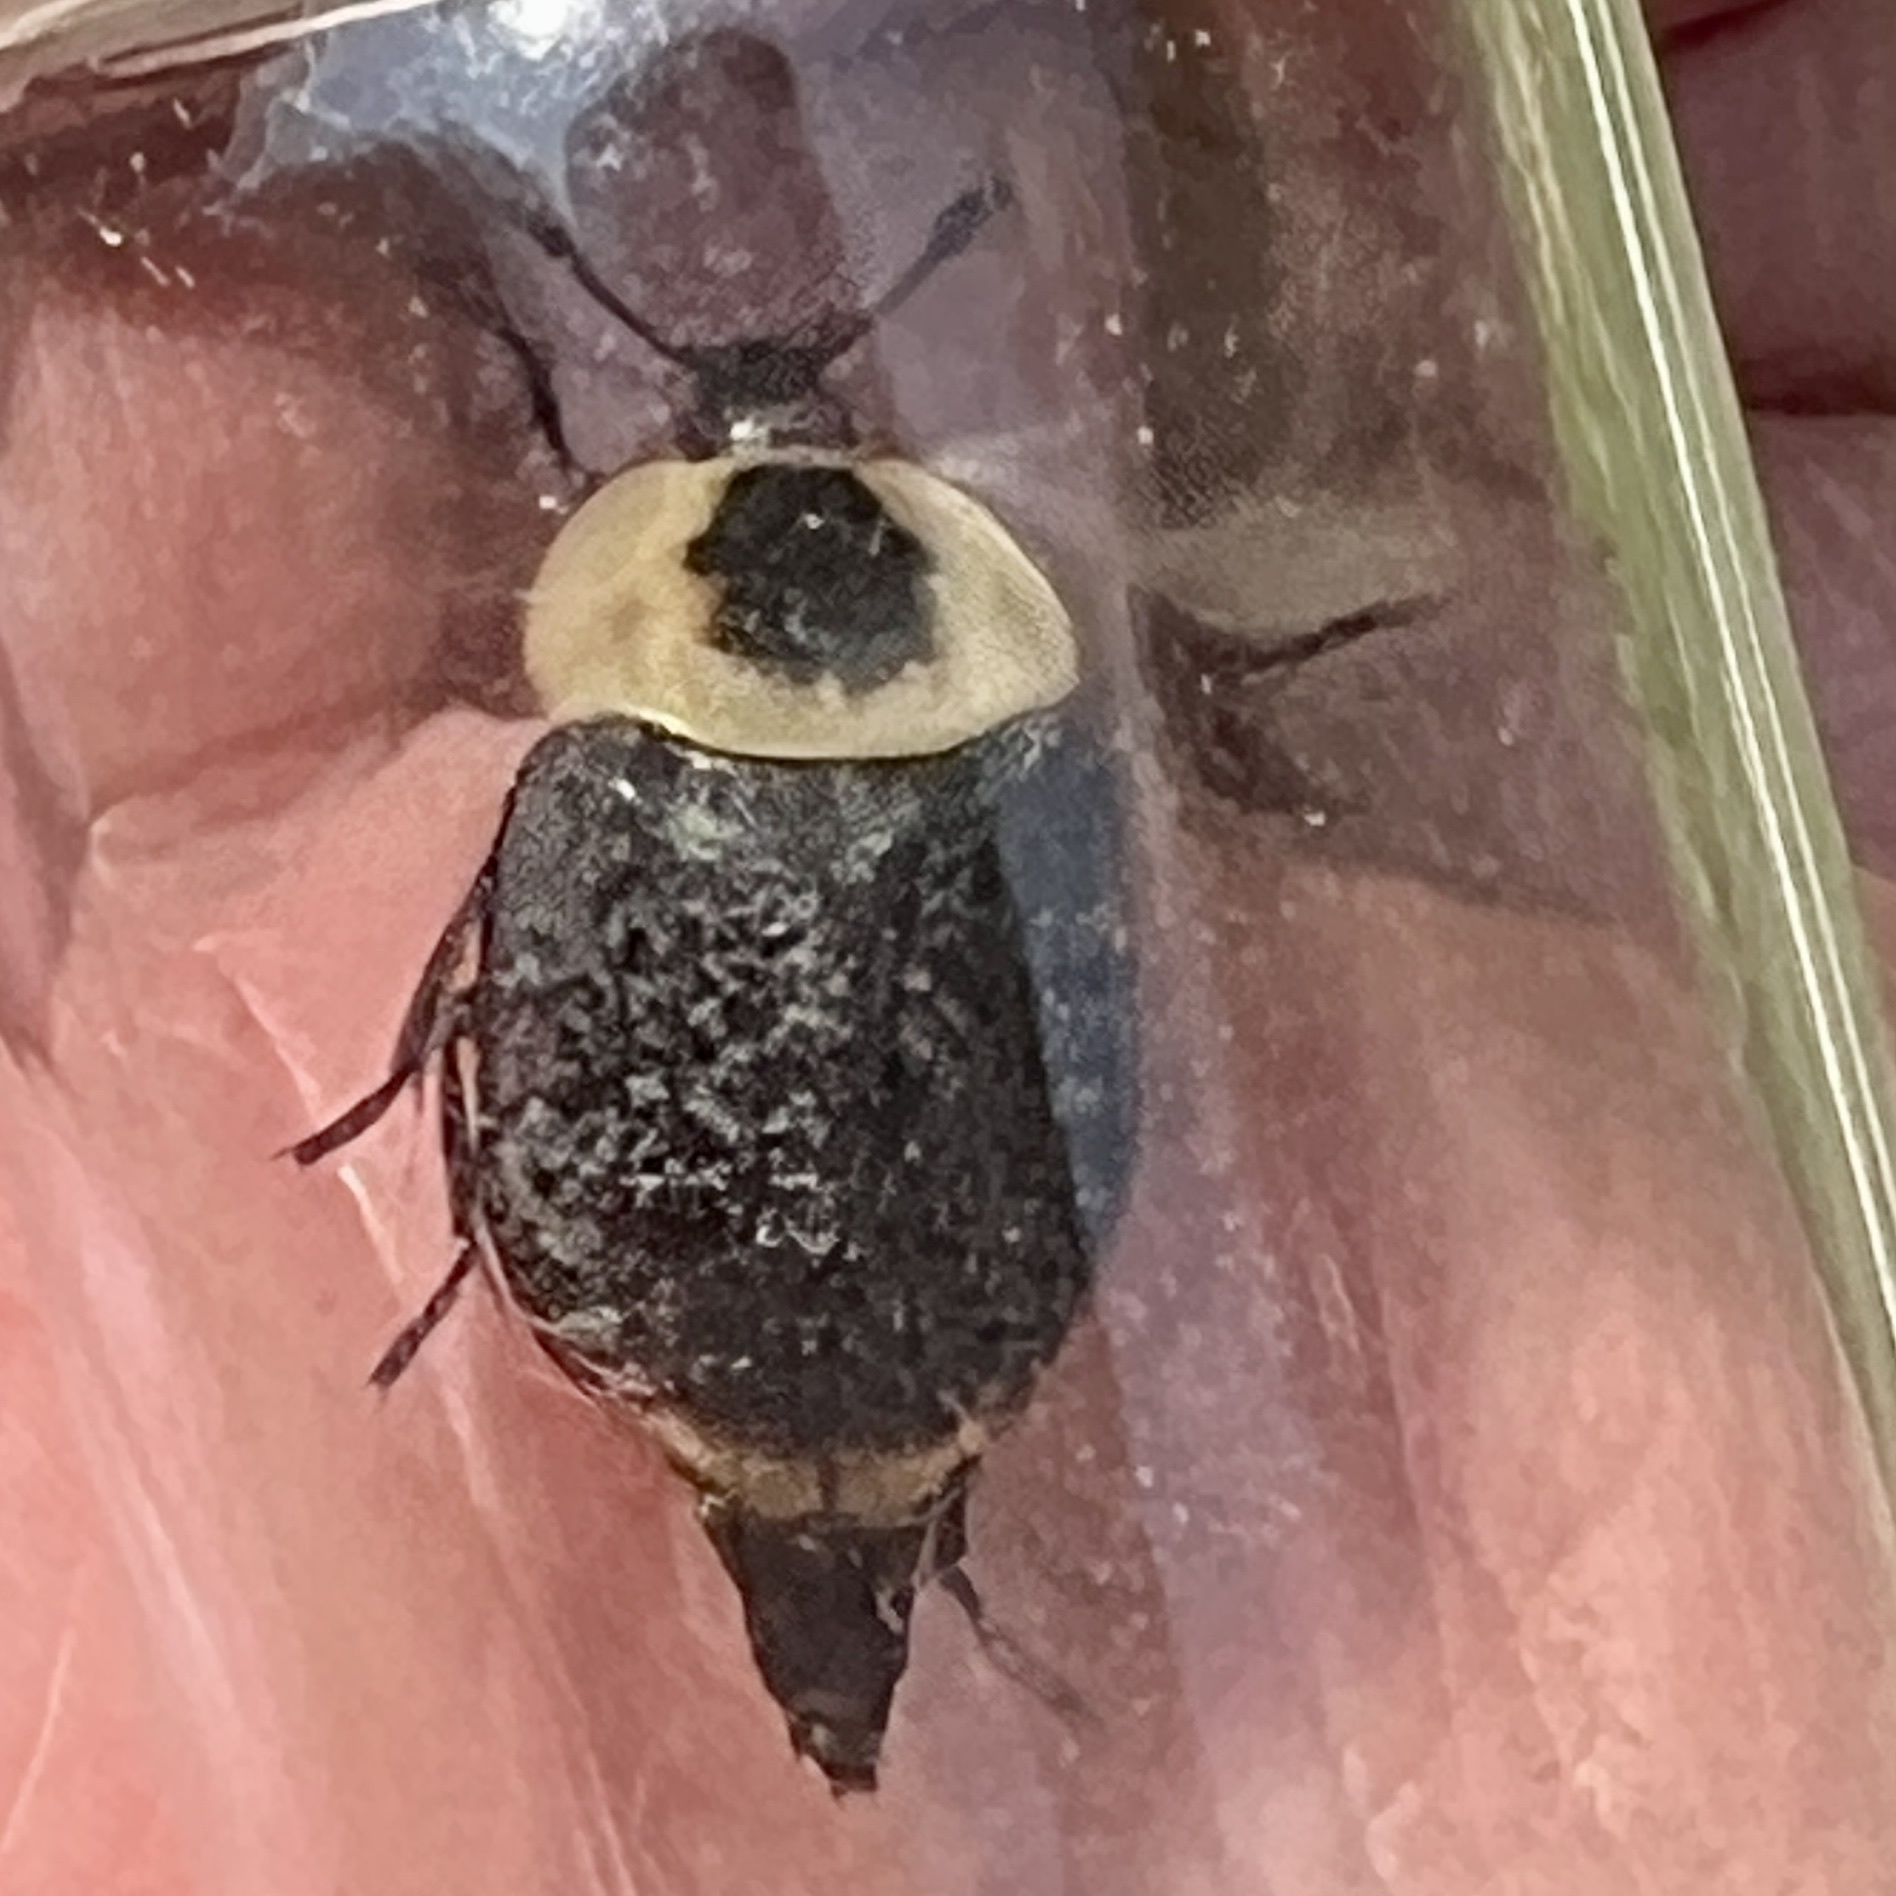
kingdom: Animalia
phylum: Arthropoda
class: Insecta
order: Coleoptera
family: Staphylinidae
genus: Necrophila
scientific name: Necrophila americana
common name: American carrion beetle
